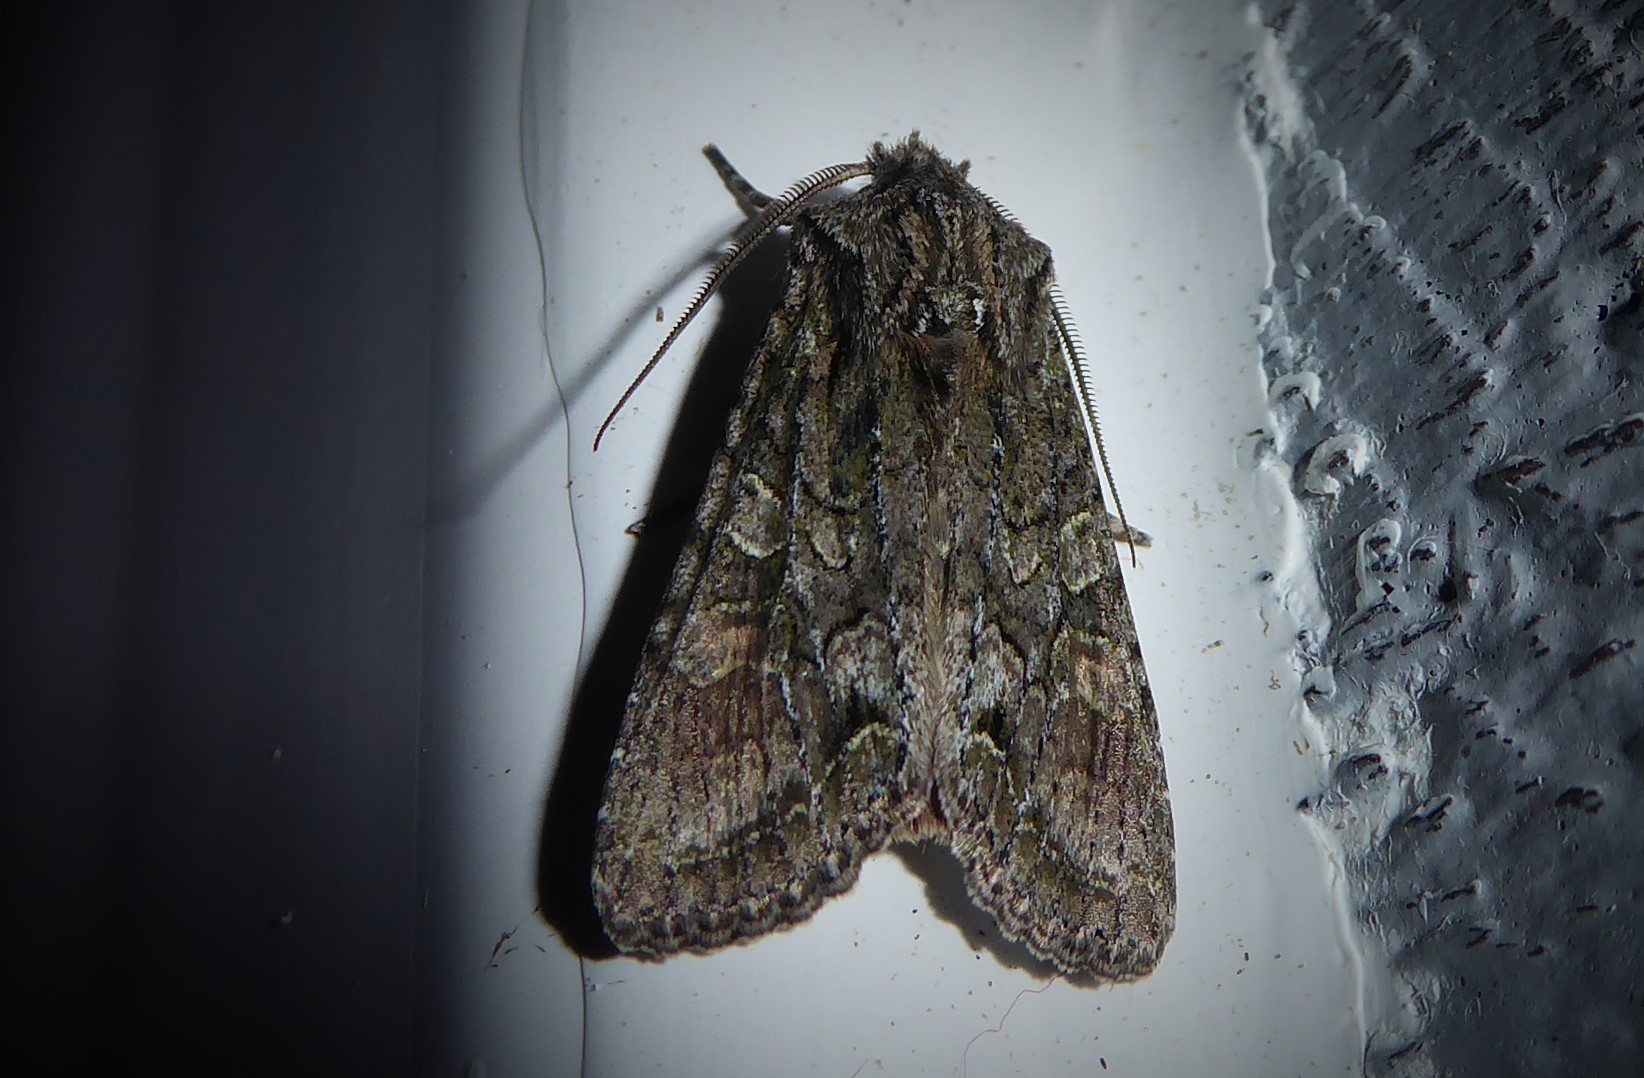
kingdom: Animalia
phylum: Arthropoda
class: Insecta
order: Lepidoptera
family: Noctuidae
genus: Ichneutica
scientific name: Ichneutica mutans
